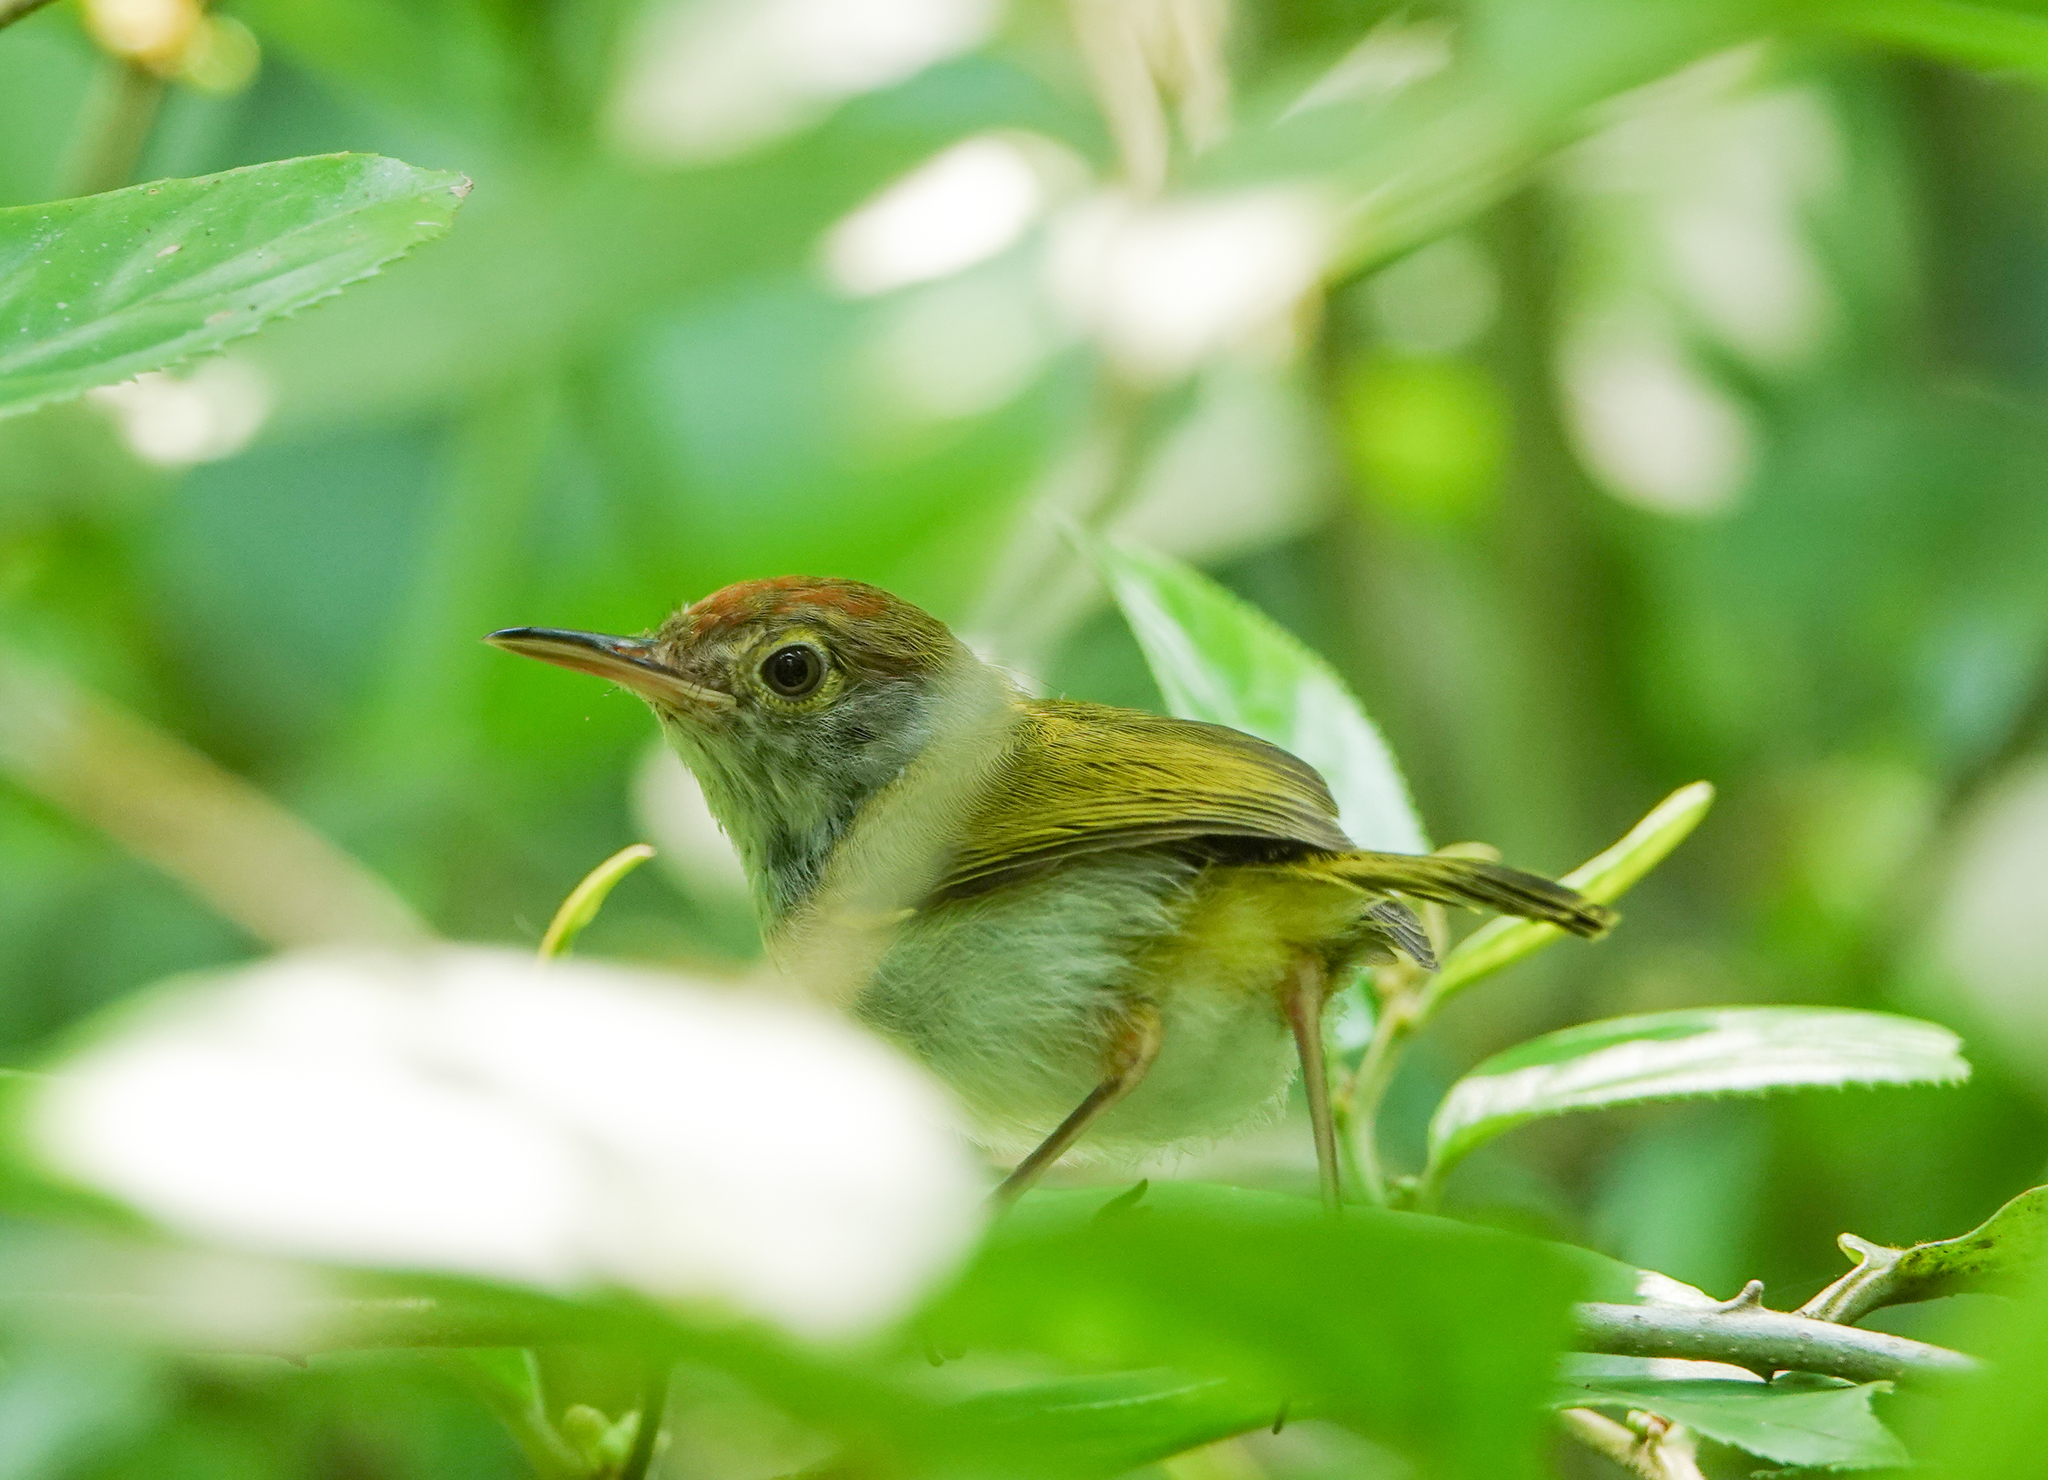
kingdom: Animalia
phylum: Chordata
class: Aves
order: Passeriformes
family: Cisticolidae
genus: Orthotomus
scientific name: Orthotomus atrogularis
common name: Dark-necked tailorbird
